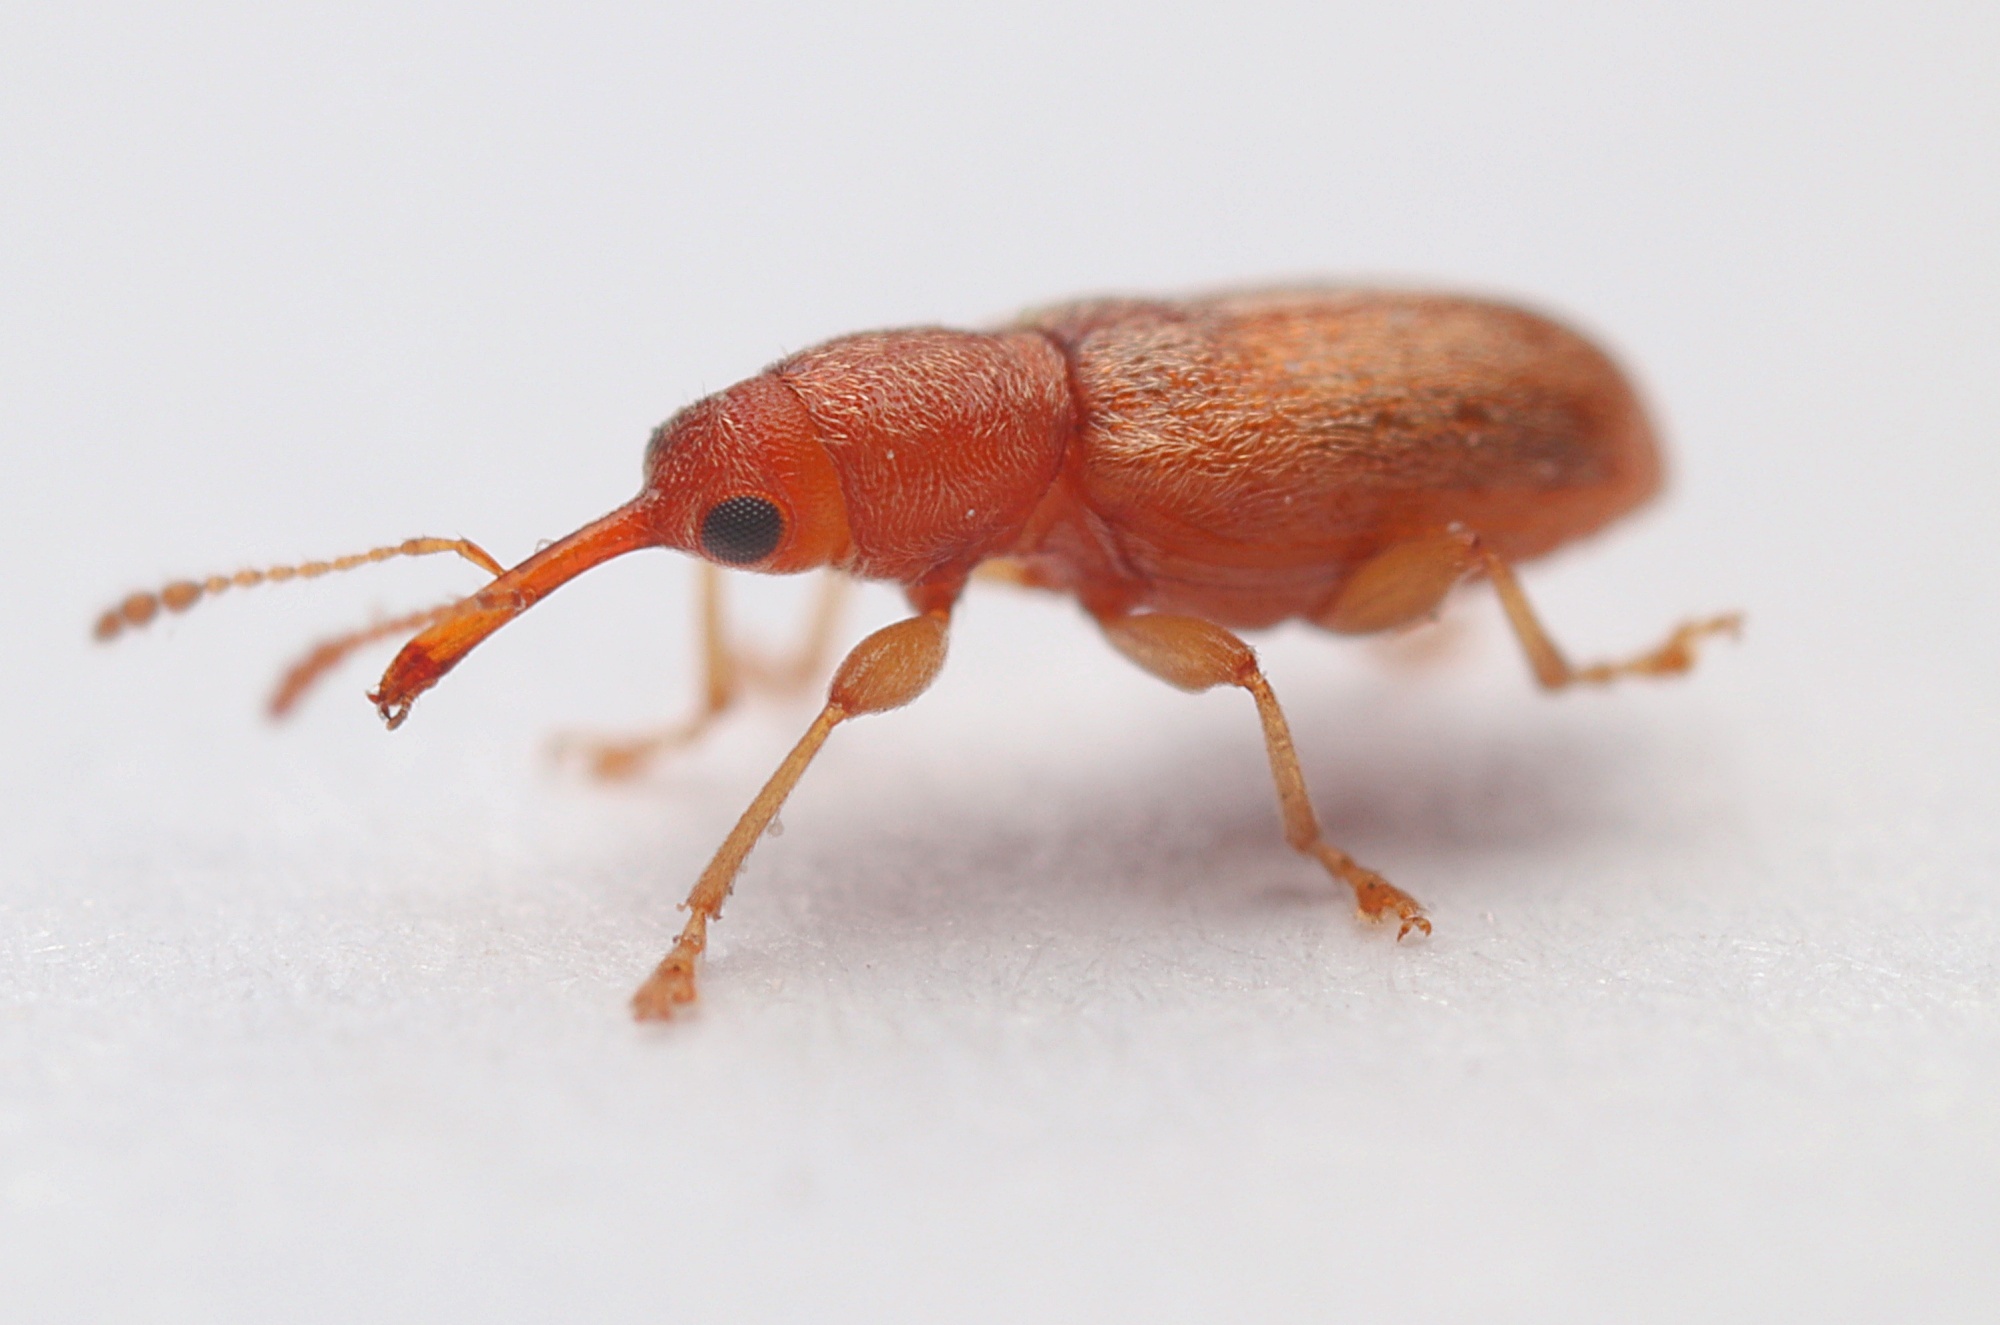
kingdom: Animalia
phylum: Arthropoda
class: Insecta
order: Coleoptera
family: Nemonychidae
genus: Rhinorhynchus
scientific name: Rhinorhynchus rufulus
